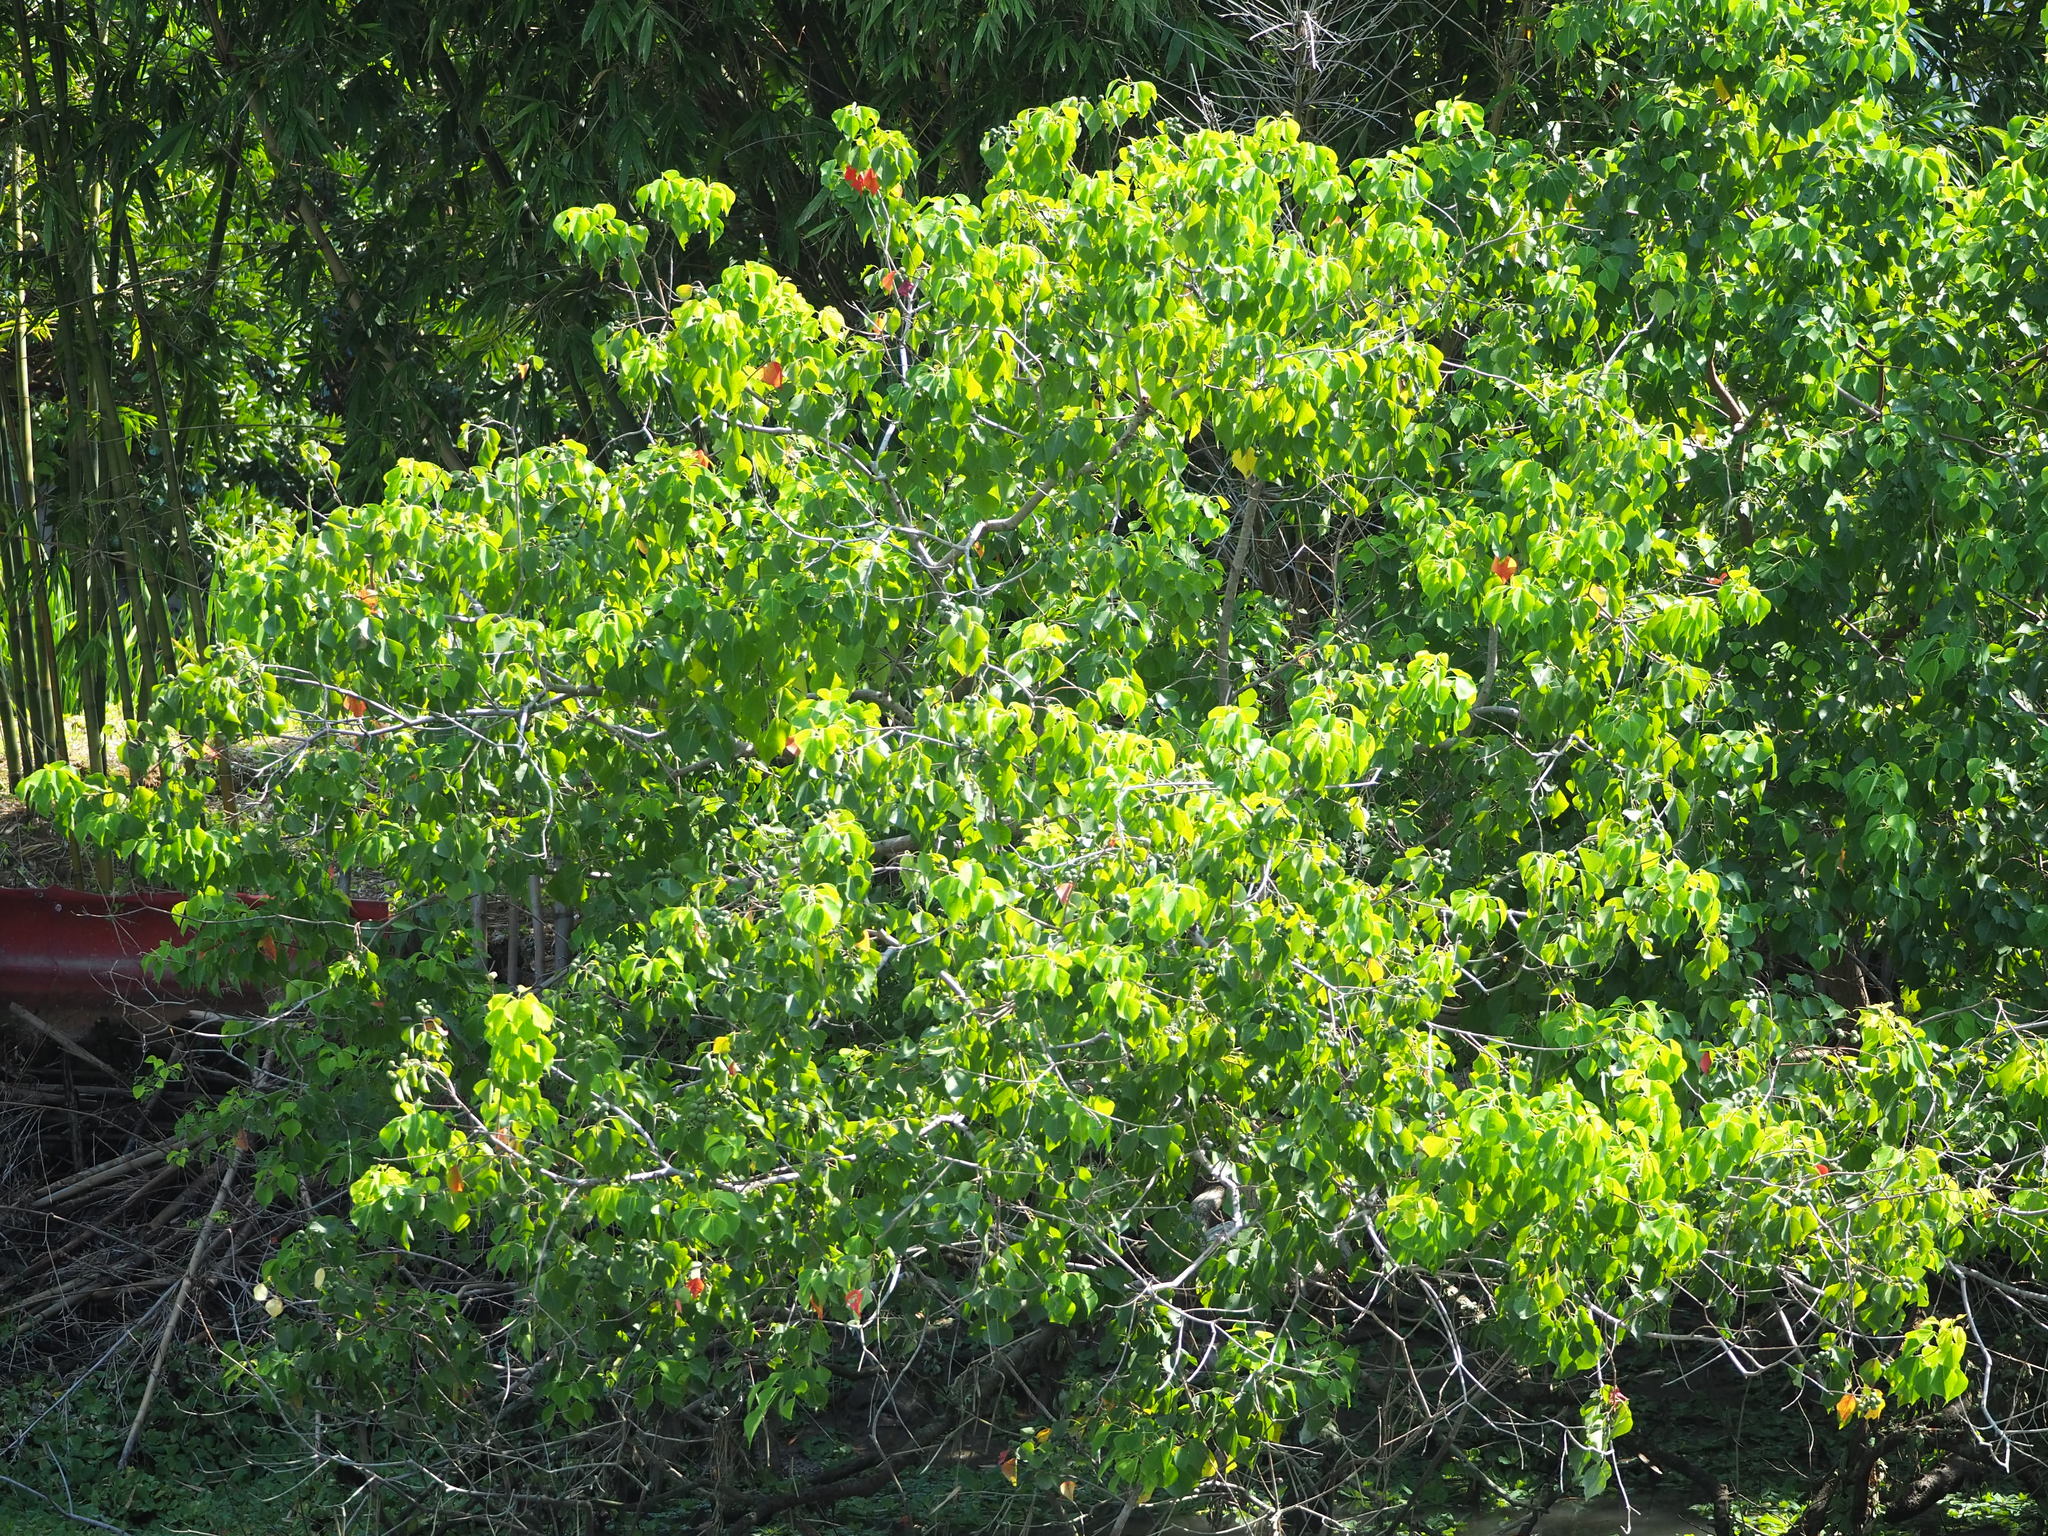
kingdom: Plantae
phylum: Tracheophyta
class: Magnoliopsida
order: Malpighiales
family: Euphorbiaceae
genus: Triadica
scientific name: Triadica sebifera
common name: Chinese tallow
